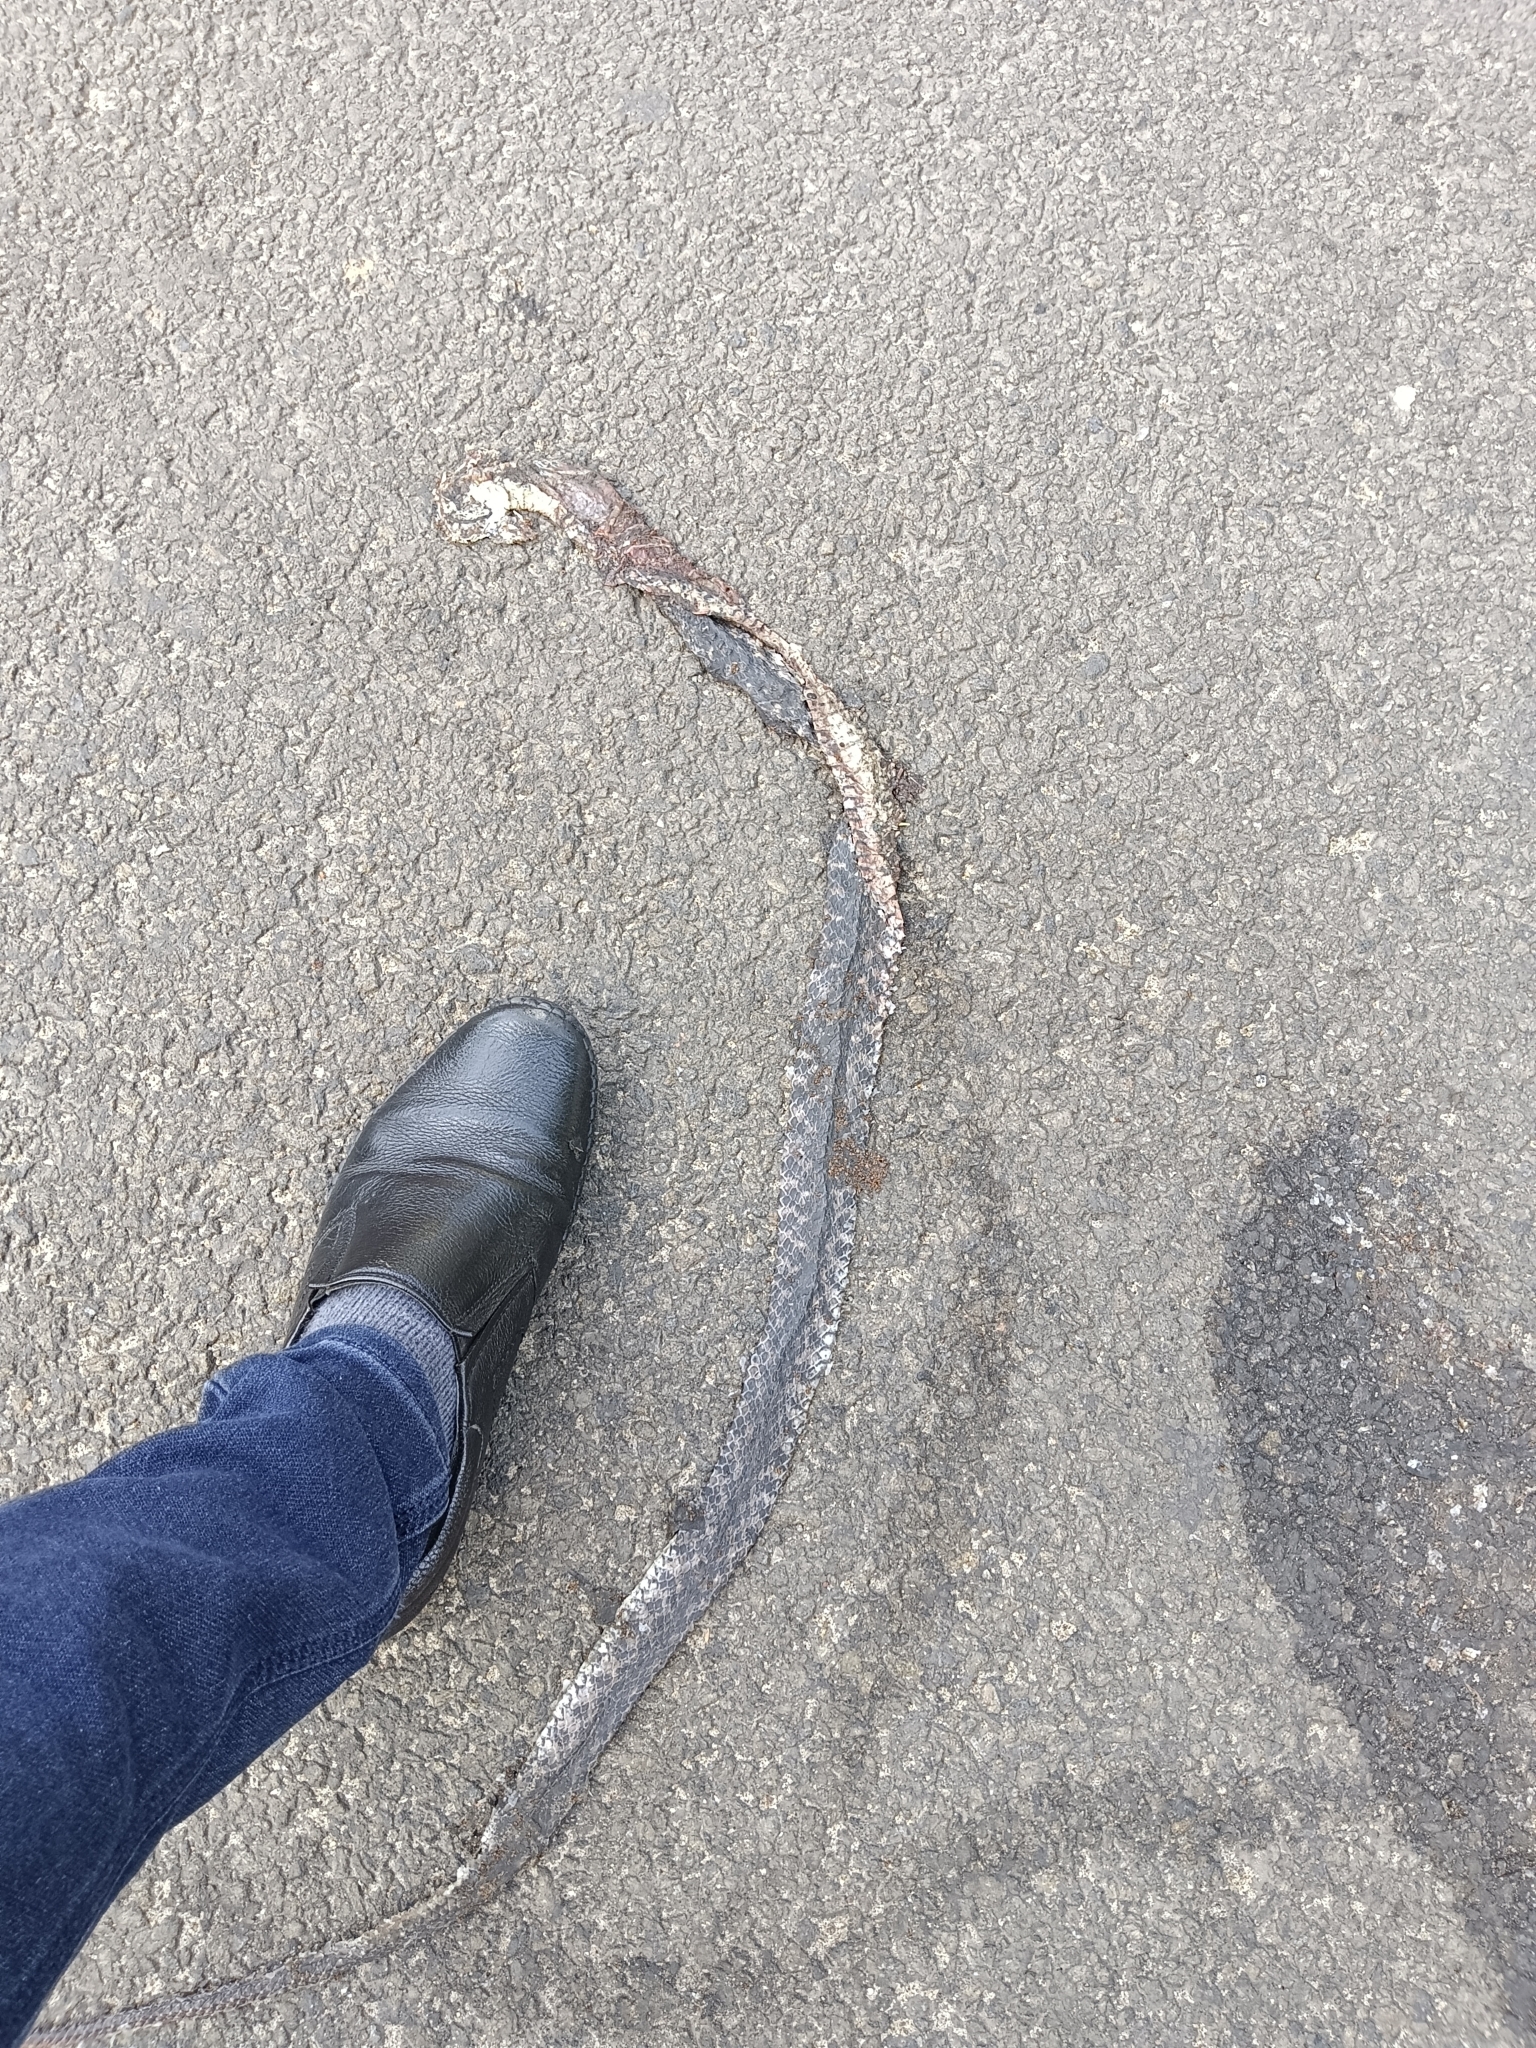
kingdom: Animalia
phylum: Chordata
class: Squamata
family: Colubridae
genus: Fowlea
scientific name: Fowlea piscator
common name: Asiatic water snake
